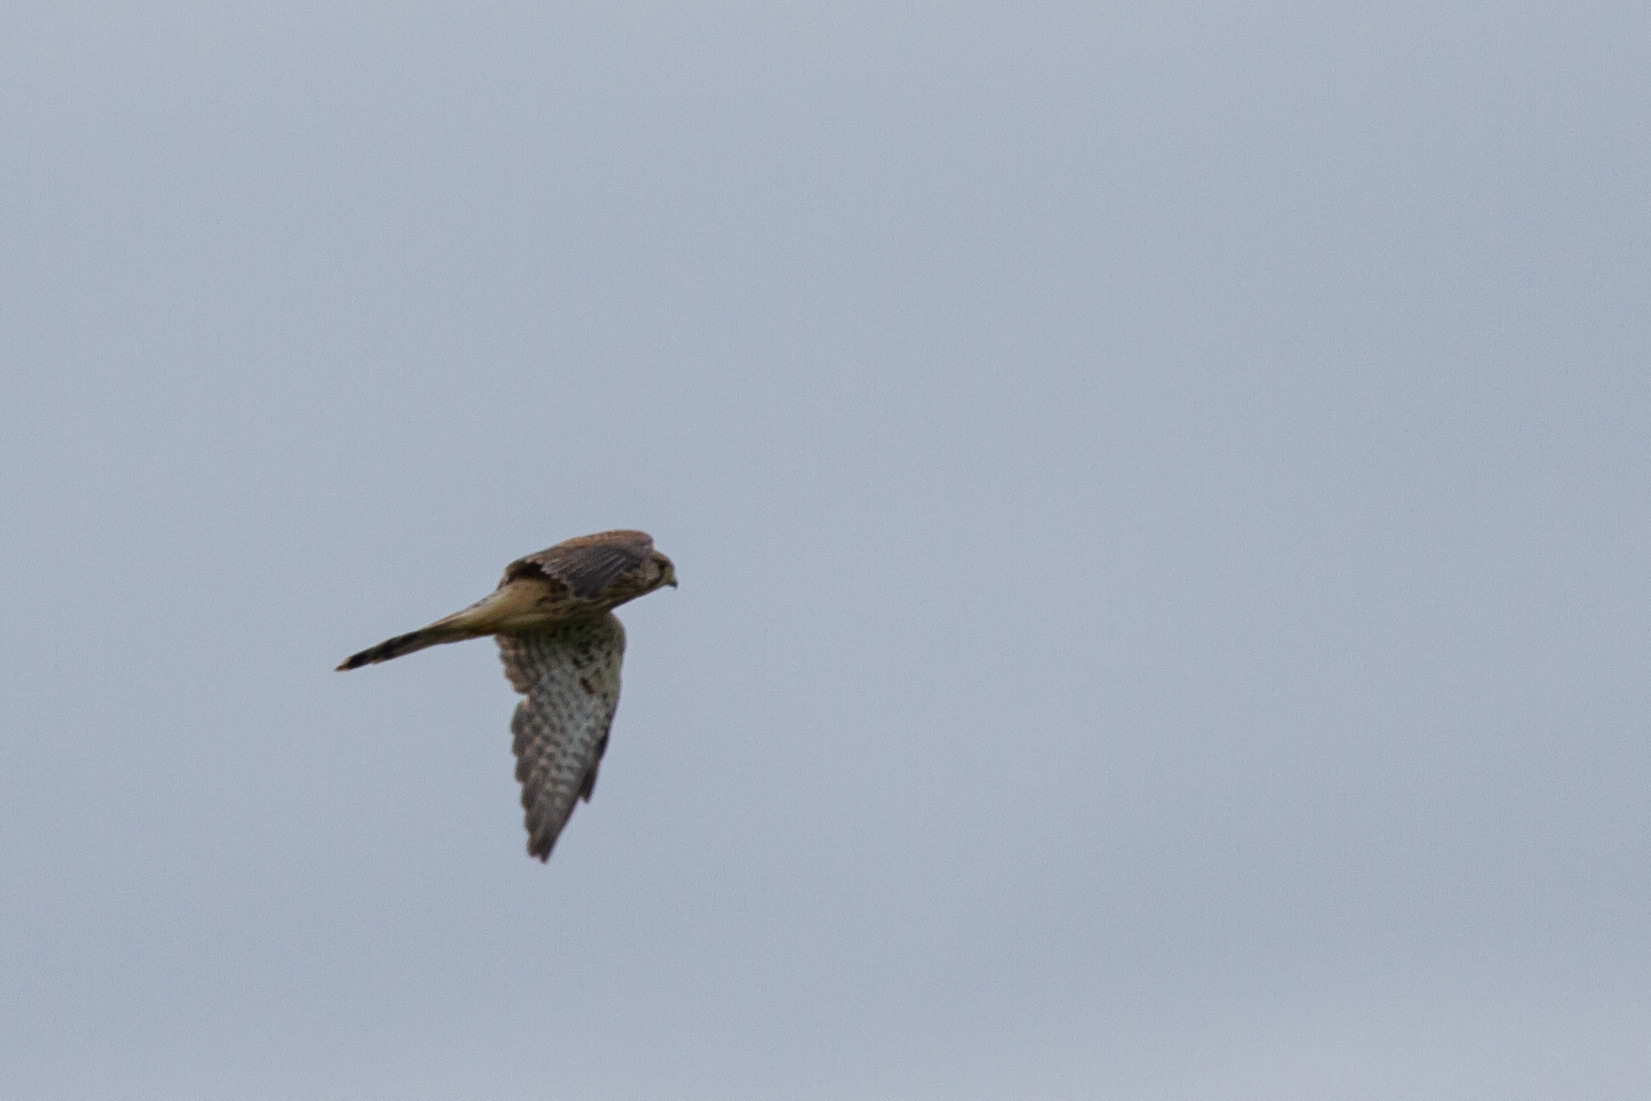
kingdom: Animalia
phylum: Chordata
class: Aves
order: Falconiformes
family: Falconidae
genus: Falco
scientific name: Falco tinnunculus
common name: Common kestrel
